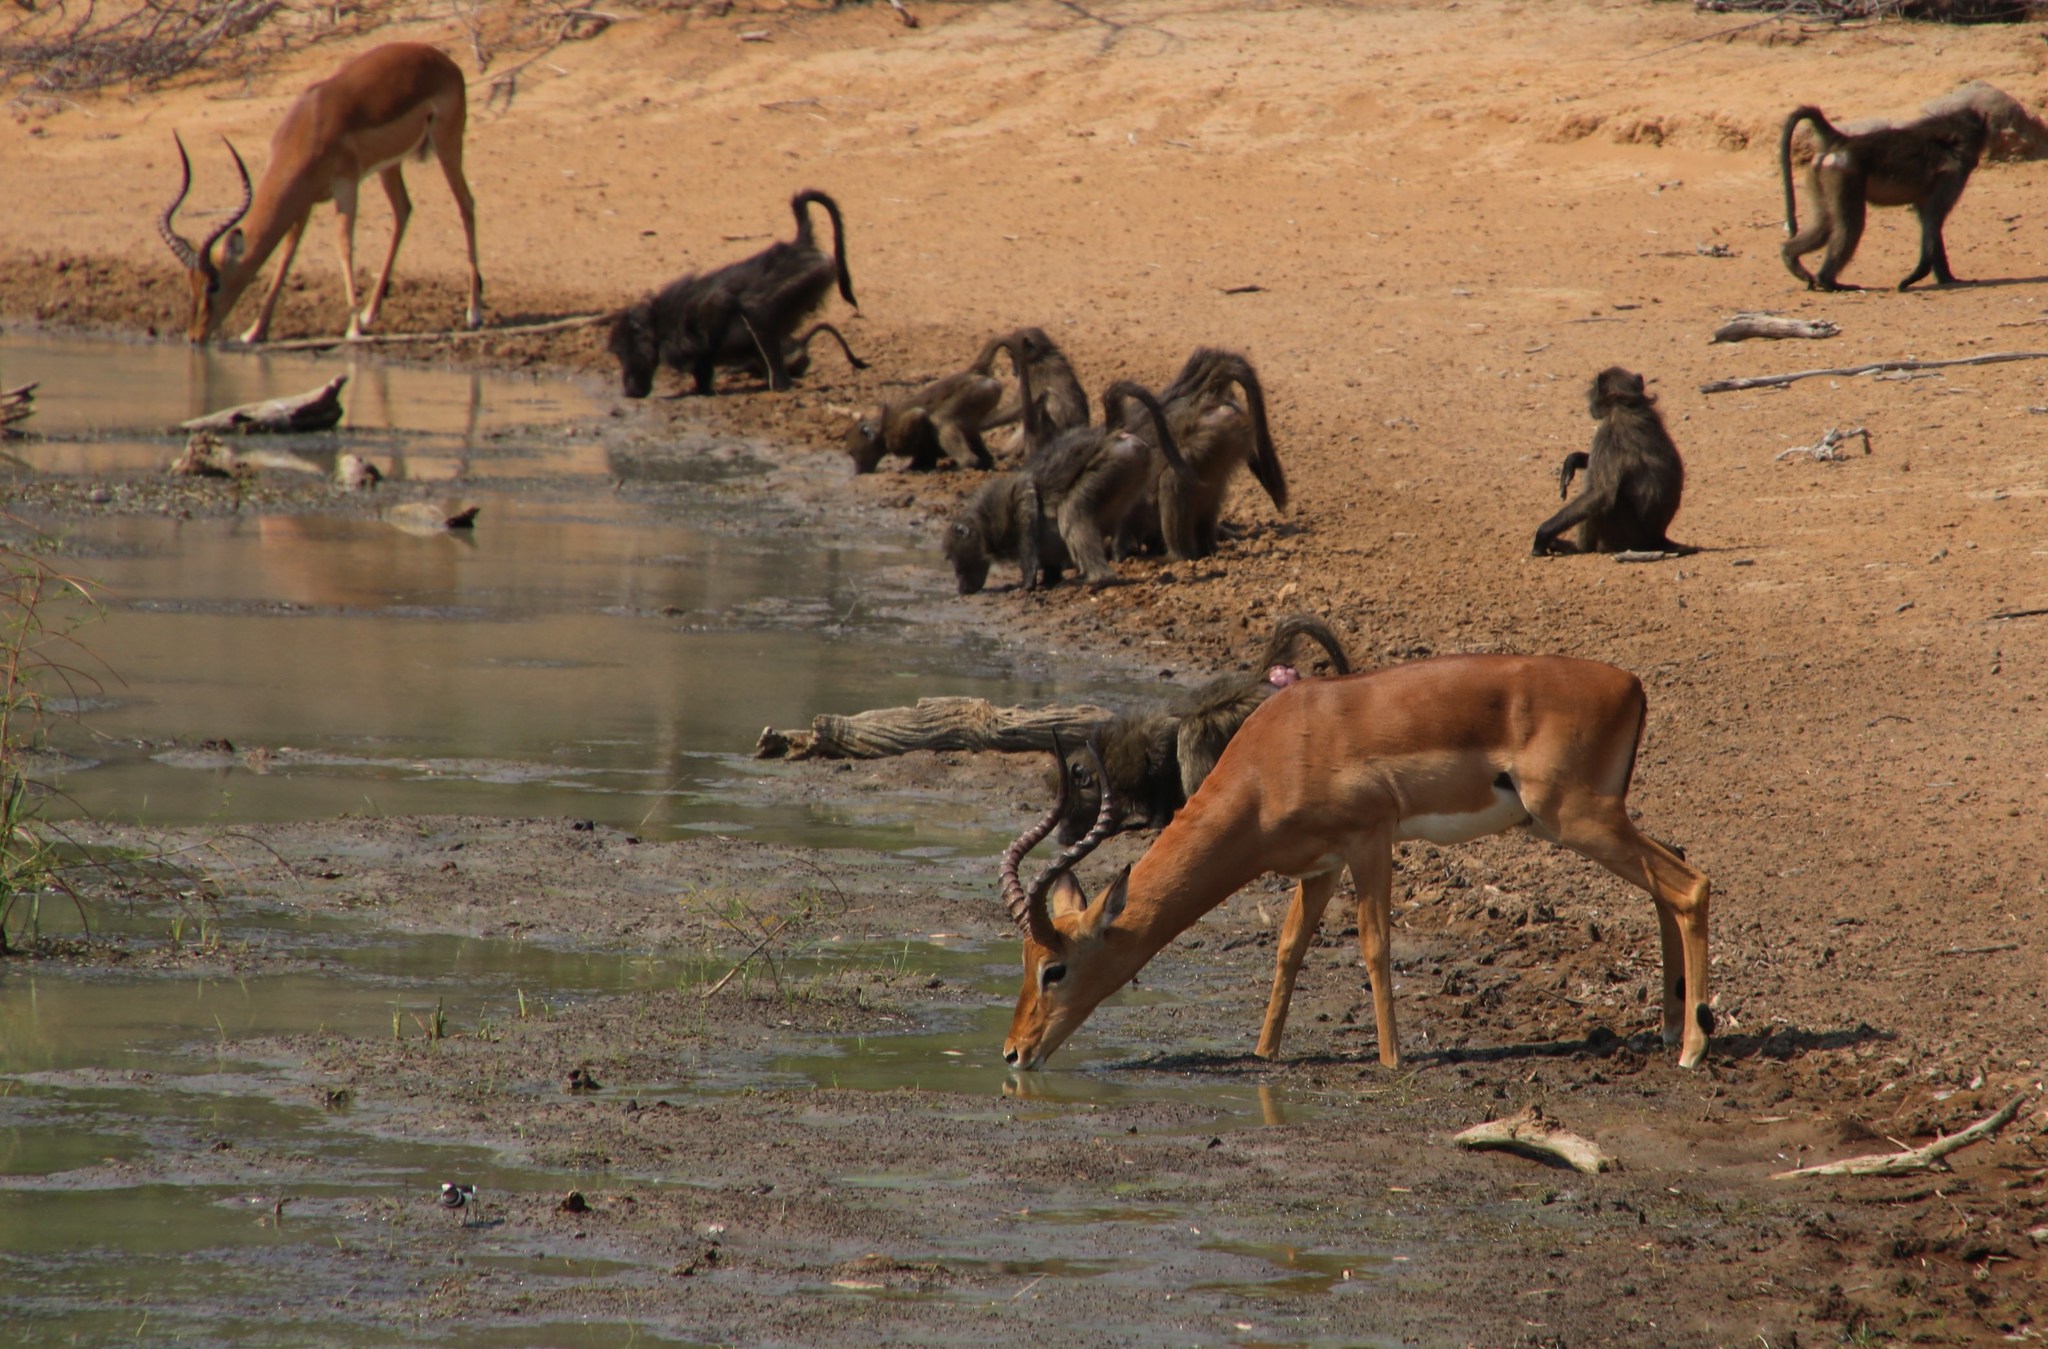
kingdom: Animalia
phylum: Chordata
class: Mammalia
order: Artiodactyla
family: Bovidae
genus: Aepyceros
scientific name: Aepyceros melampus
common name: Impala
